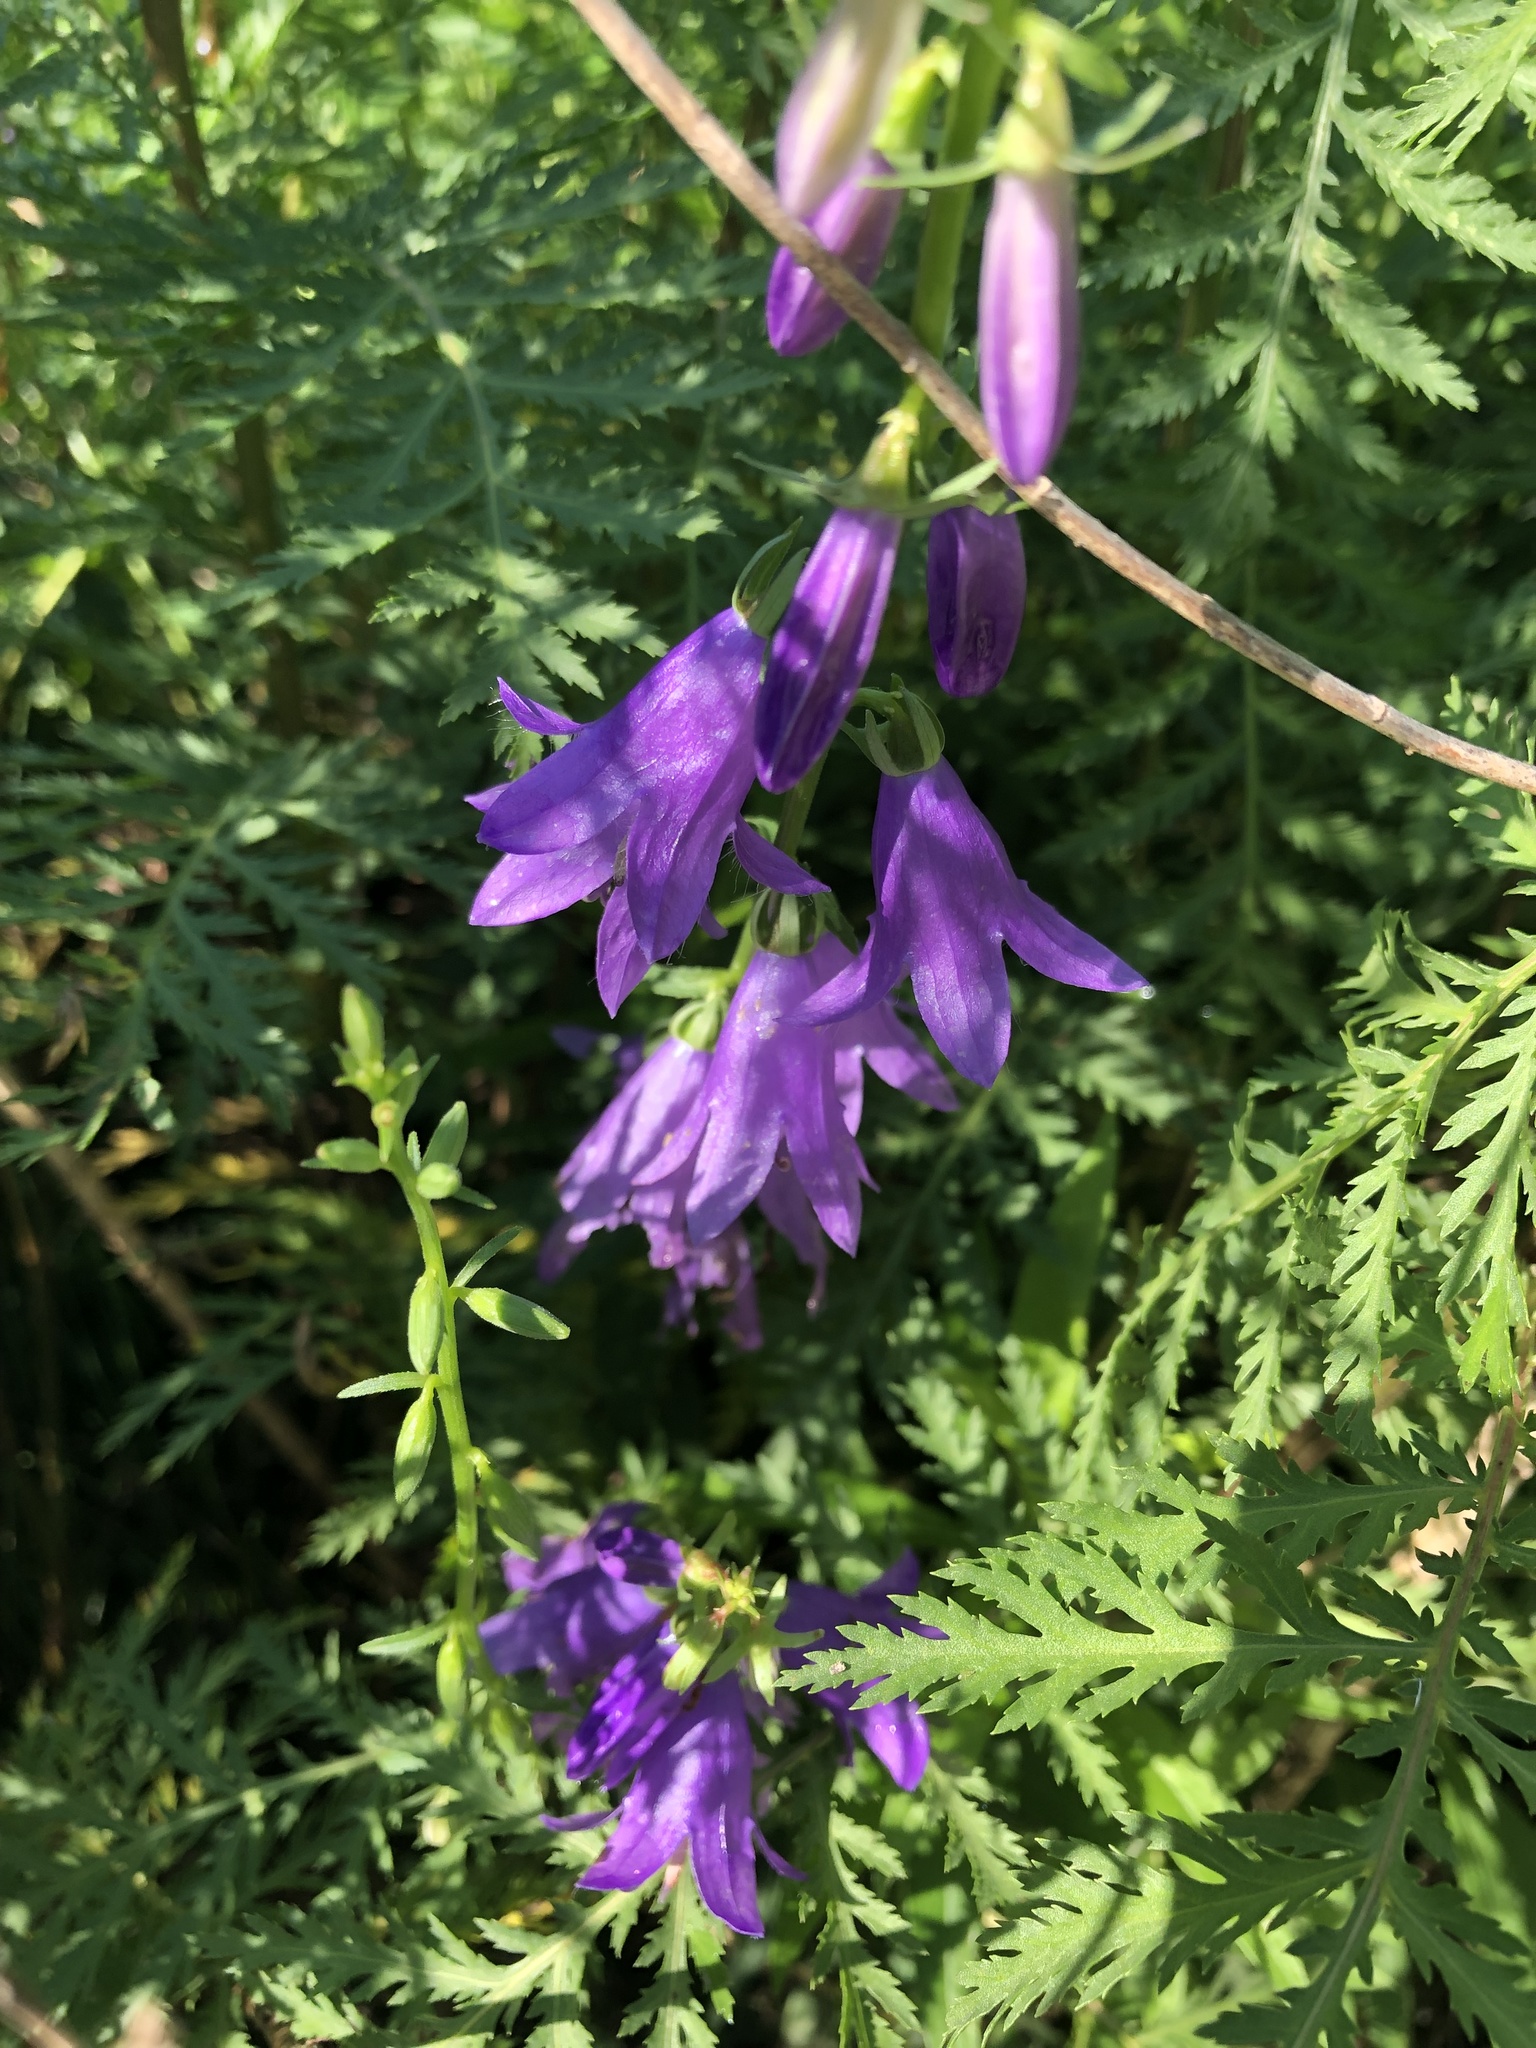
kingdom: Plantae
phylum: Tracheophyta
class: Magnoliopsida
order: Asterales
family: Campanulaceae
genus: Campanula
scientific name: Campanula rapunculoides
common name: Creeping bellflower
